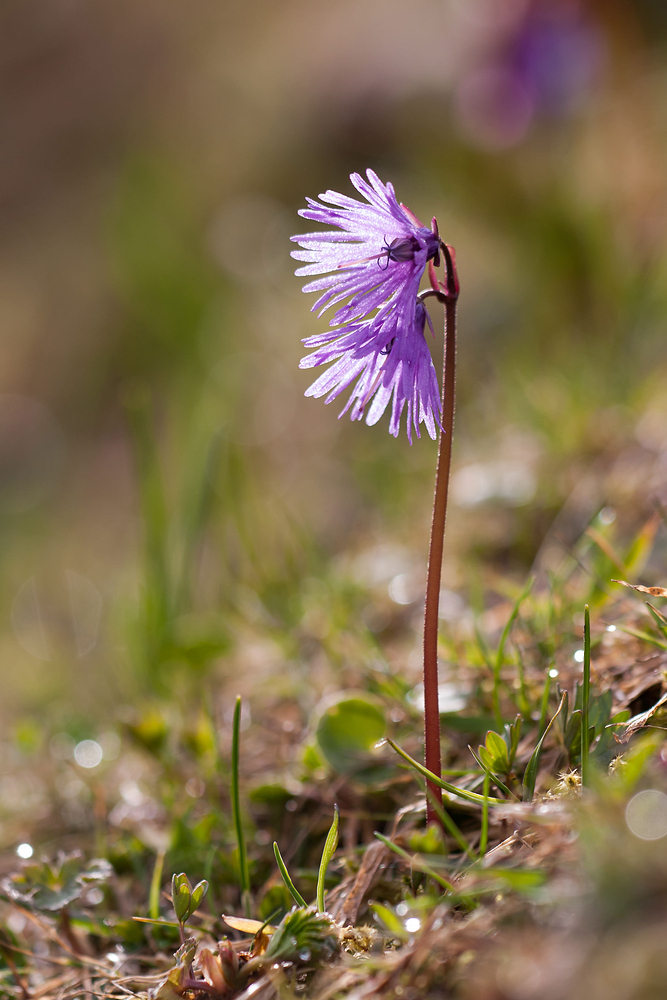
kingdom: Plantae
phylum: Tracheophyta
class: Magnoliopsida
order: Ericales
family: Primulaceae
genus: Soldanella
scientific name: Soldanella alpina
